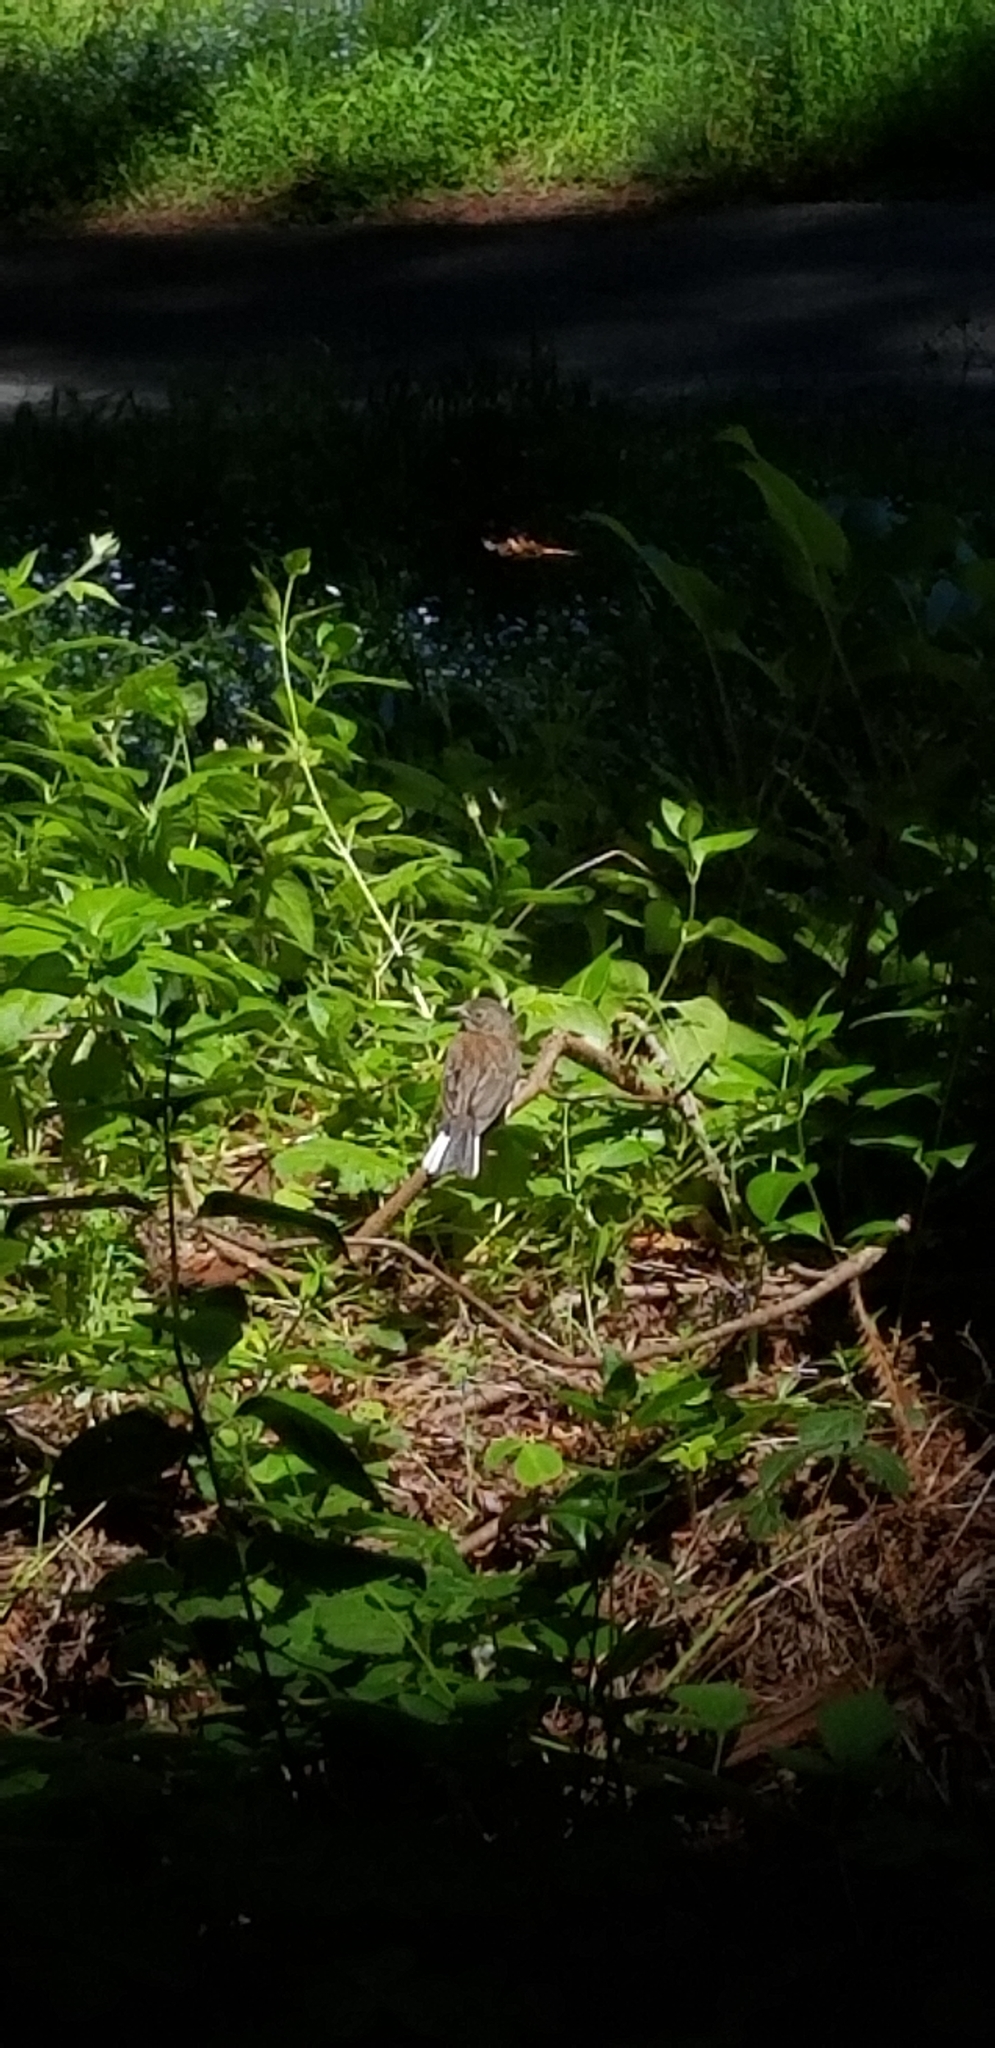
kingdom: Animalia
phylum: Chordata
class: Aves
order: Passeriformes
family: Passerellidae
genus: Junco
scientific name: Junco hyemalis
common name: Dark-eyed junco
